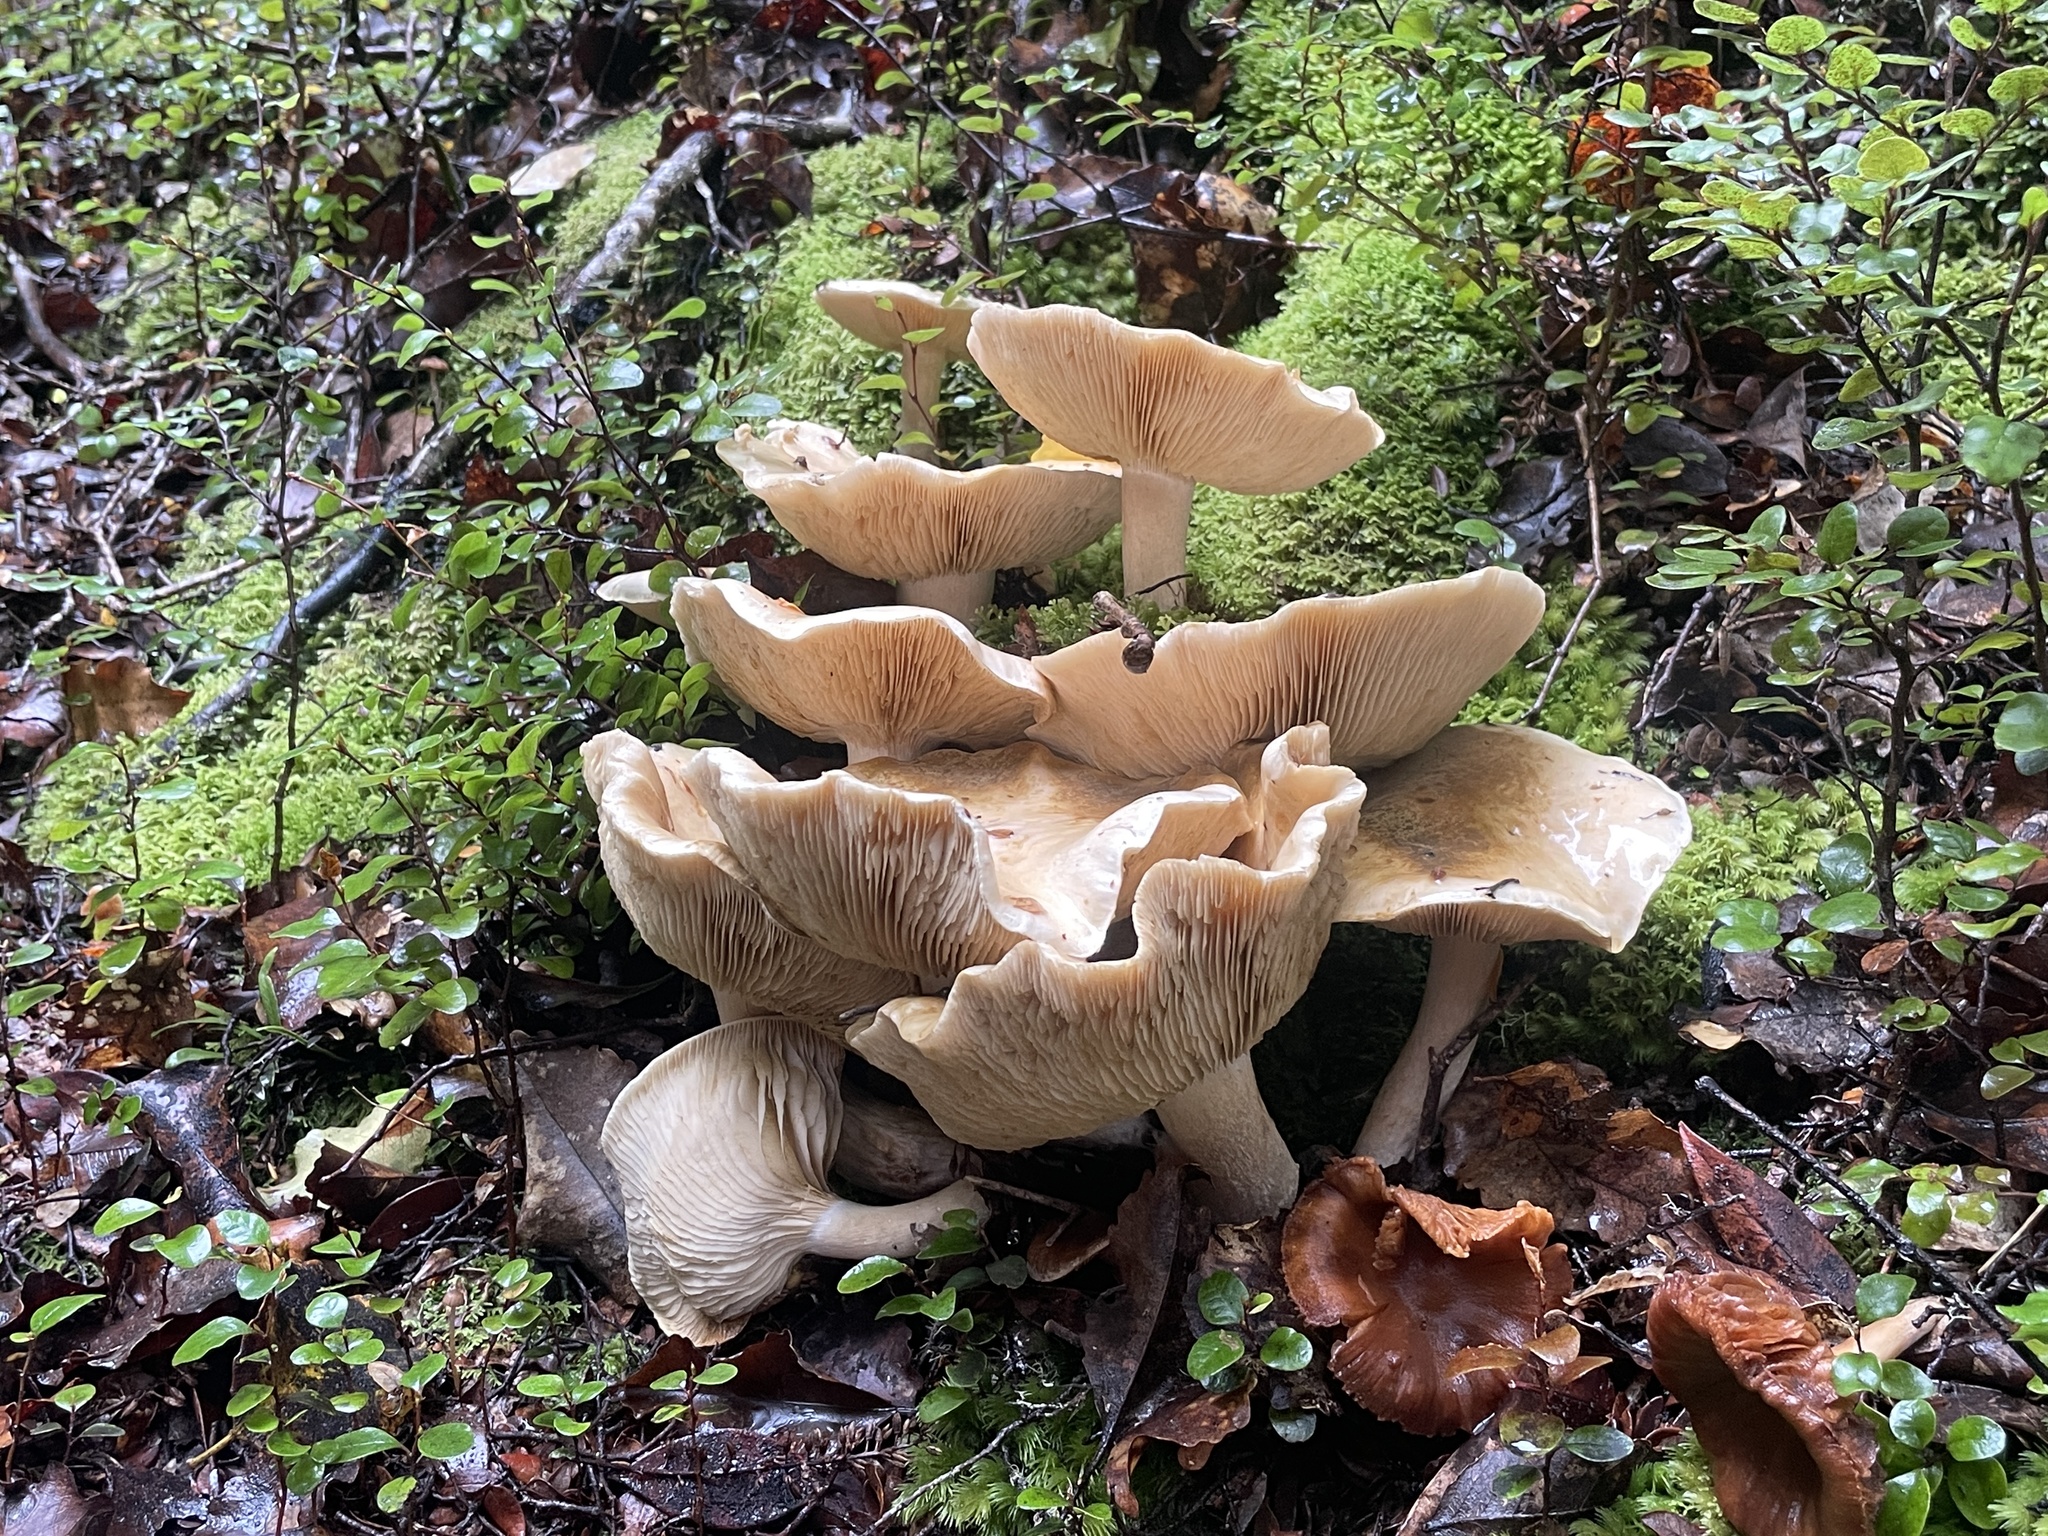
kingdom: Fungi
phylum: Basidiomycota
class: Agaricomycetes
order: Agaricales
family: Cortinariaceae
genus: Thaxterogaster
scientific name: Thaxterogaster mariae
